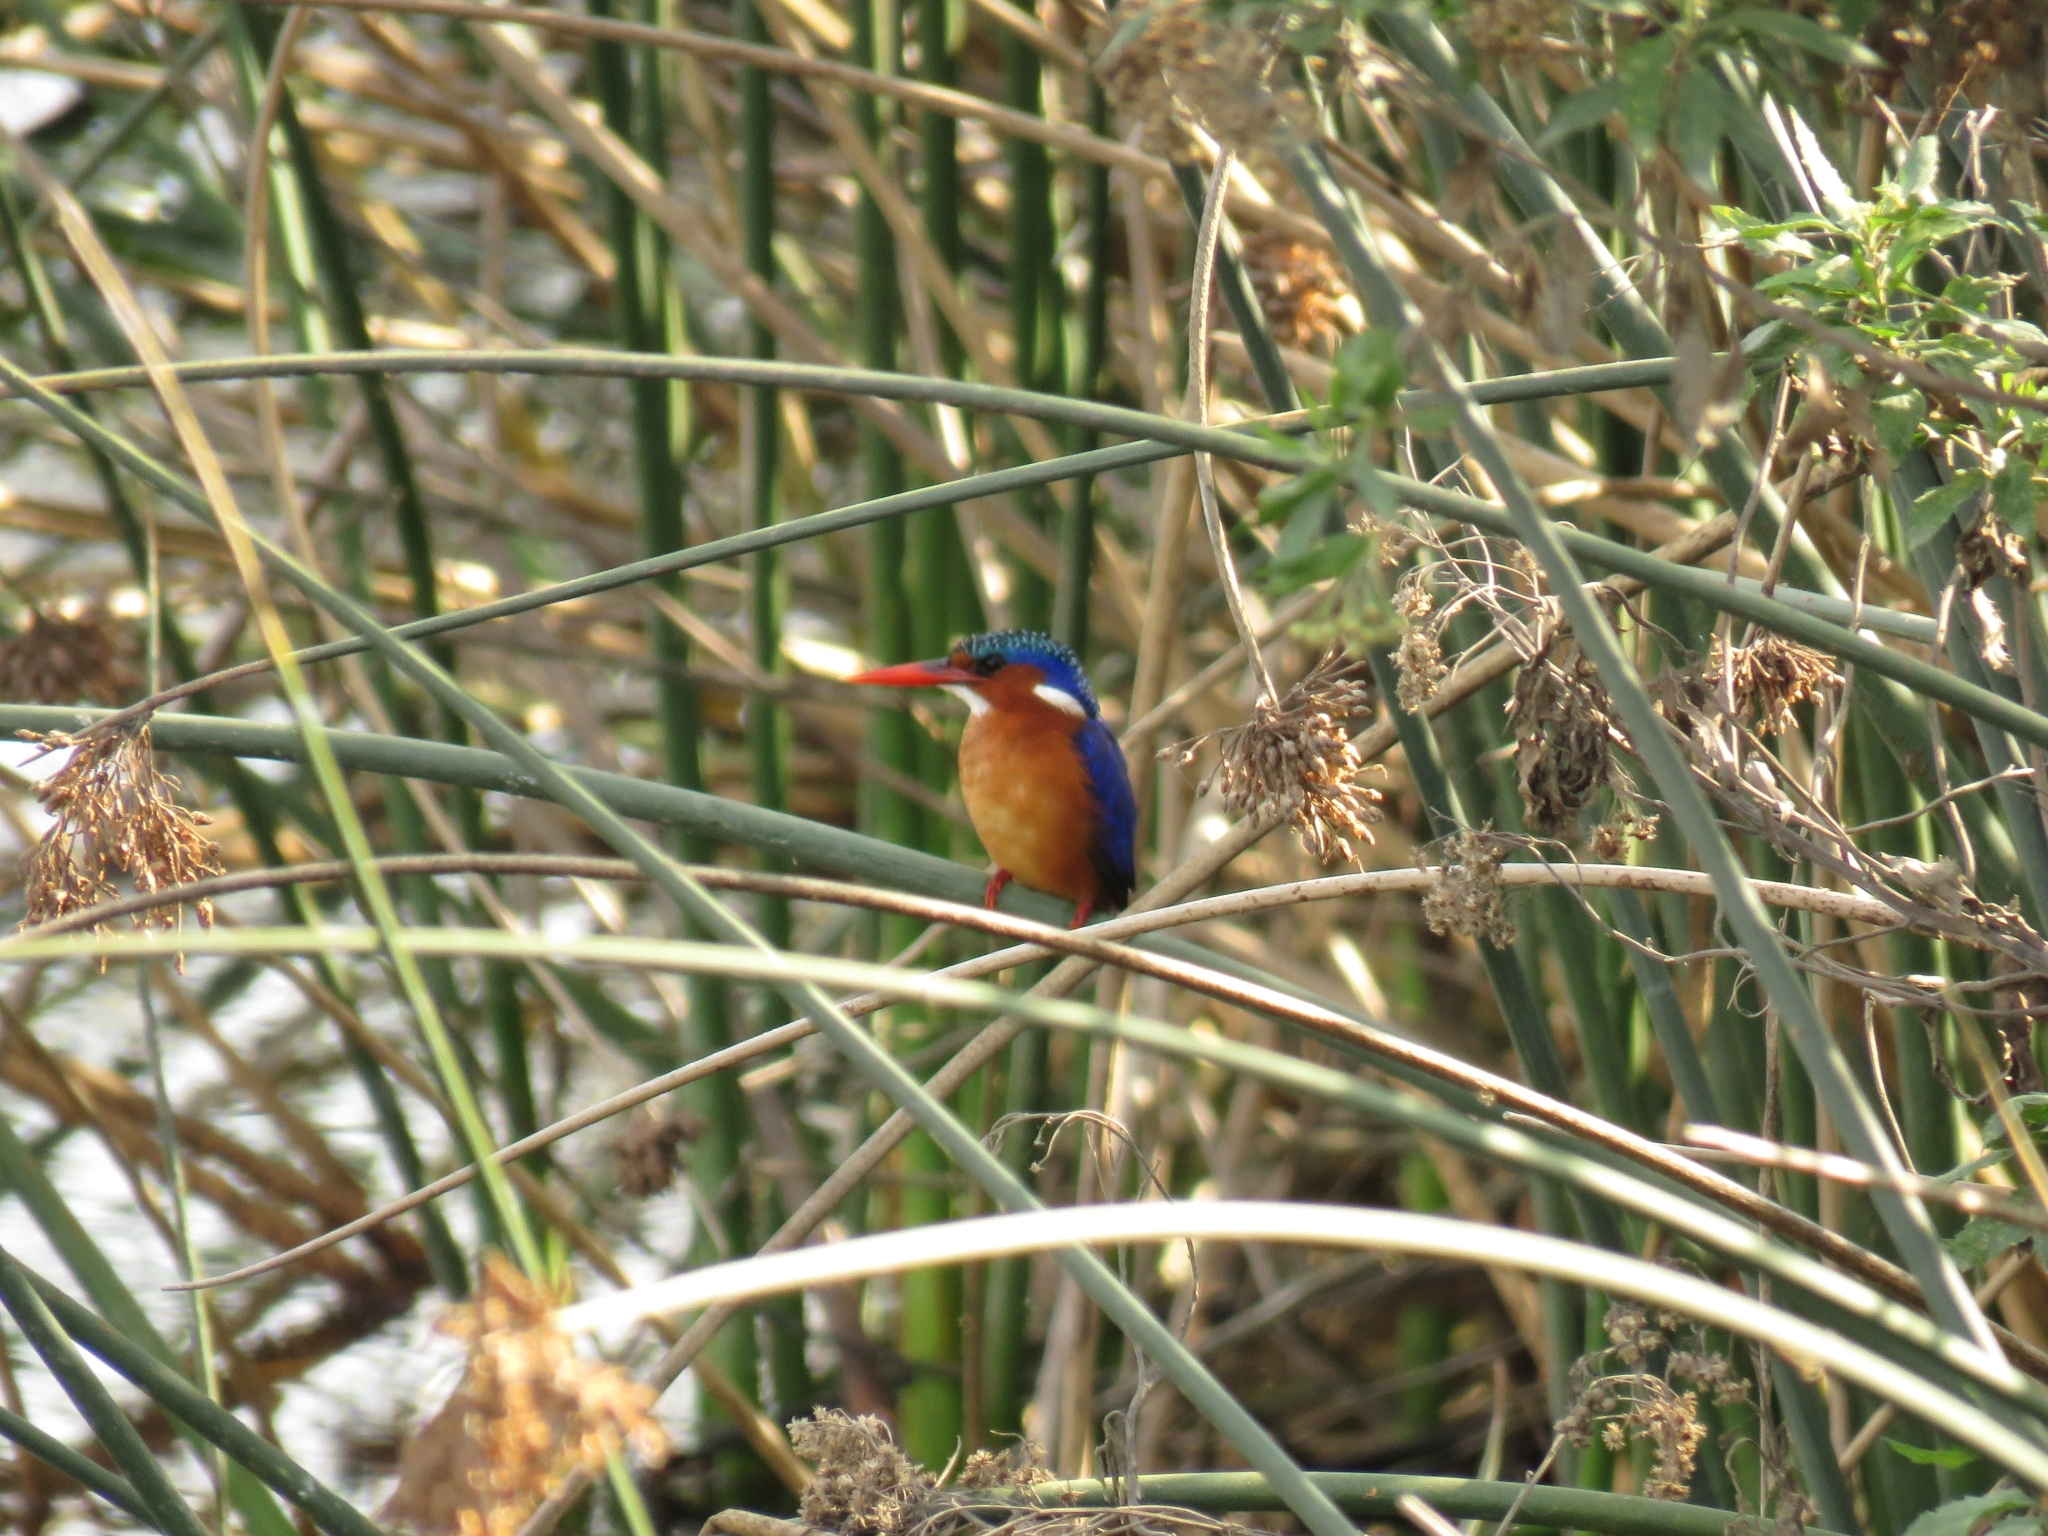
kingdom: Animalia
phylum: Chordata
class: Aves
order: Coraciiformes
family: Alcedinidae
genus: Corythornis
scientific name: Corythornis cristatus
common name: Malachite kingfisher
